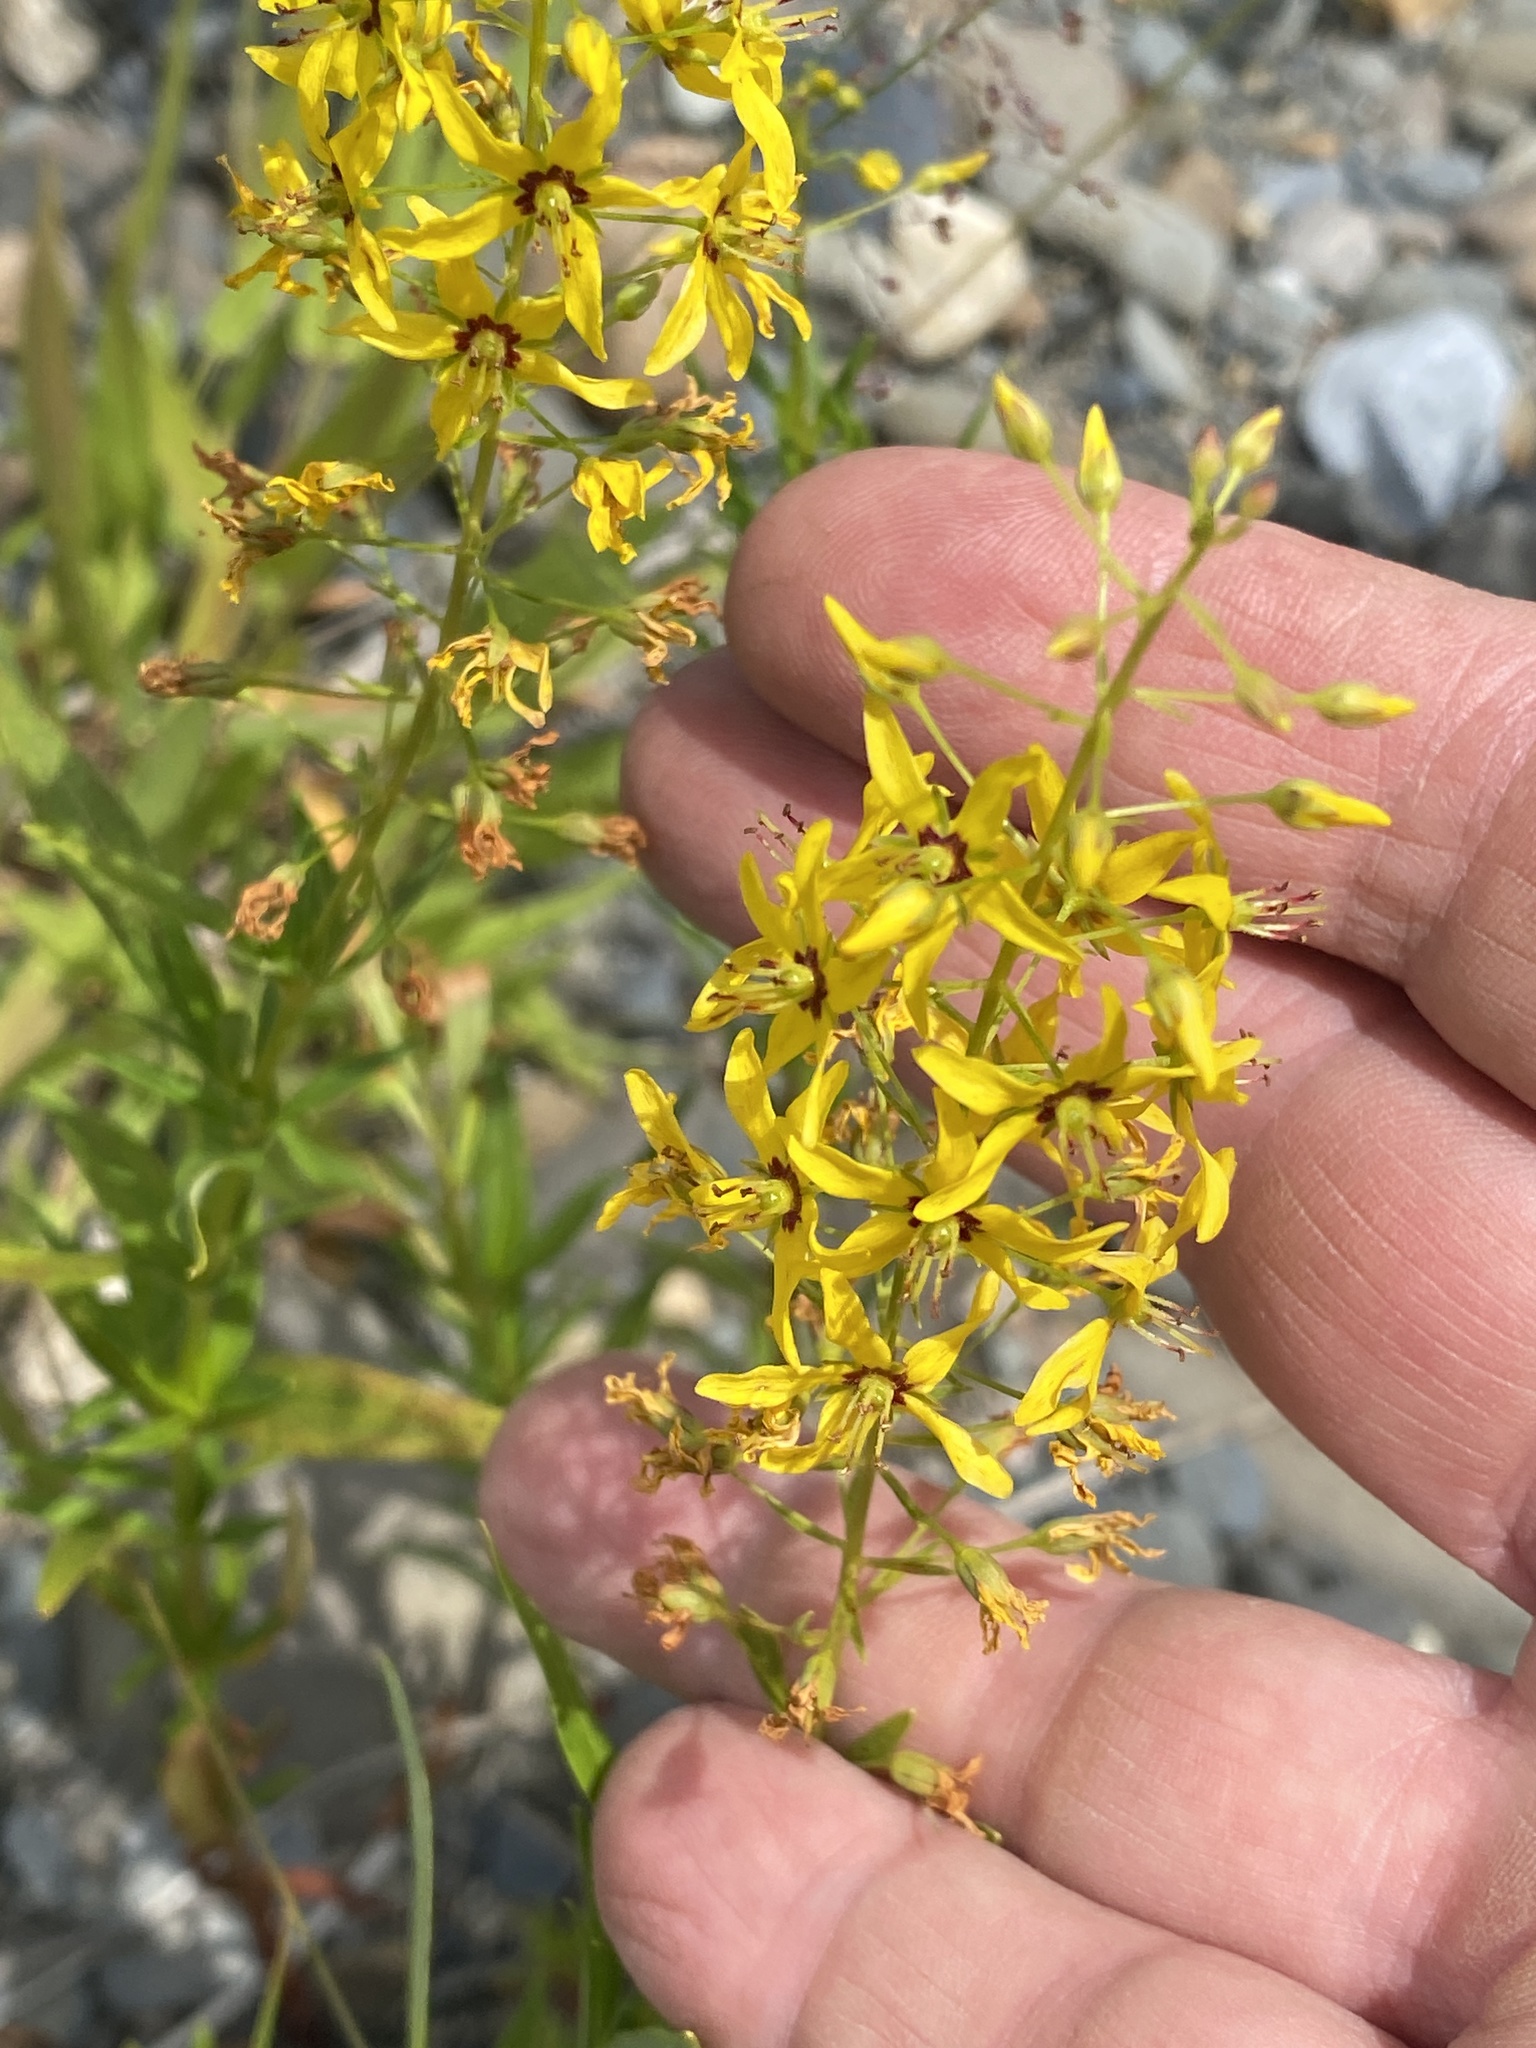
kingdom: Plantae
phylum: Tracheophyta
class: Magnoliopsida
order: Ericales
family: Primulaceae
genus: Lysimachia
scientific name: Lysimachia terrestris
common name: Lake loosestrife
